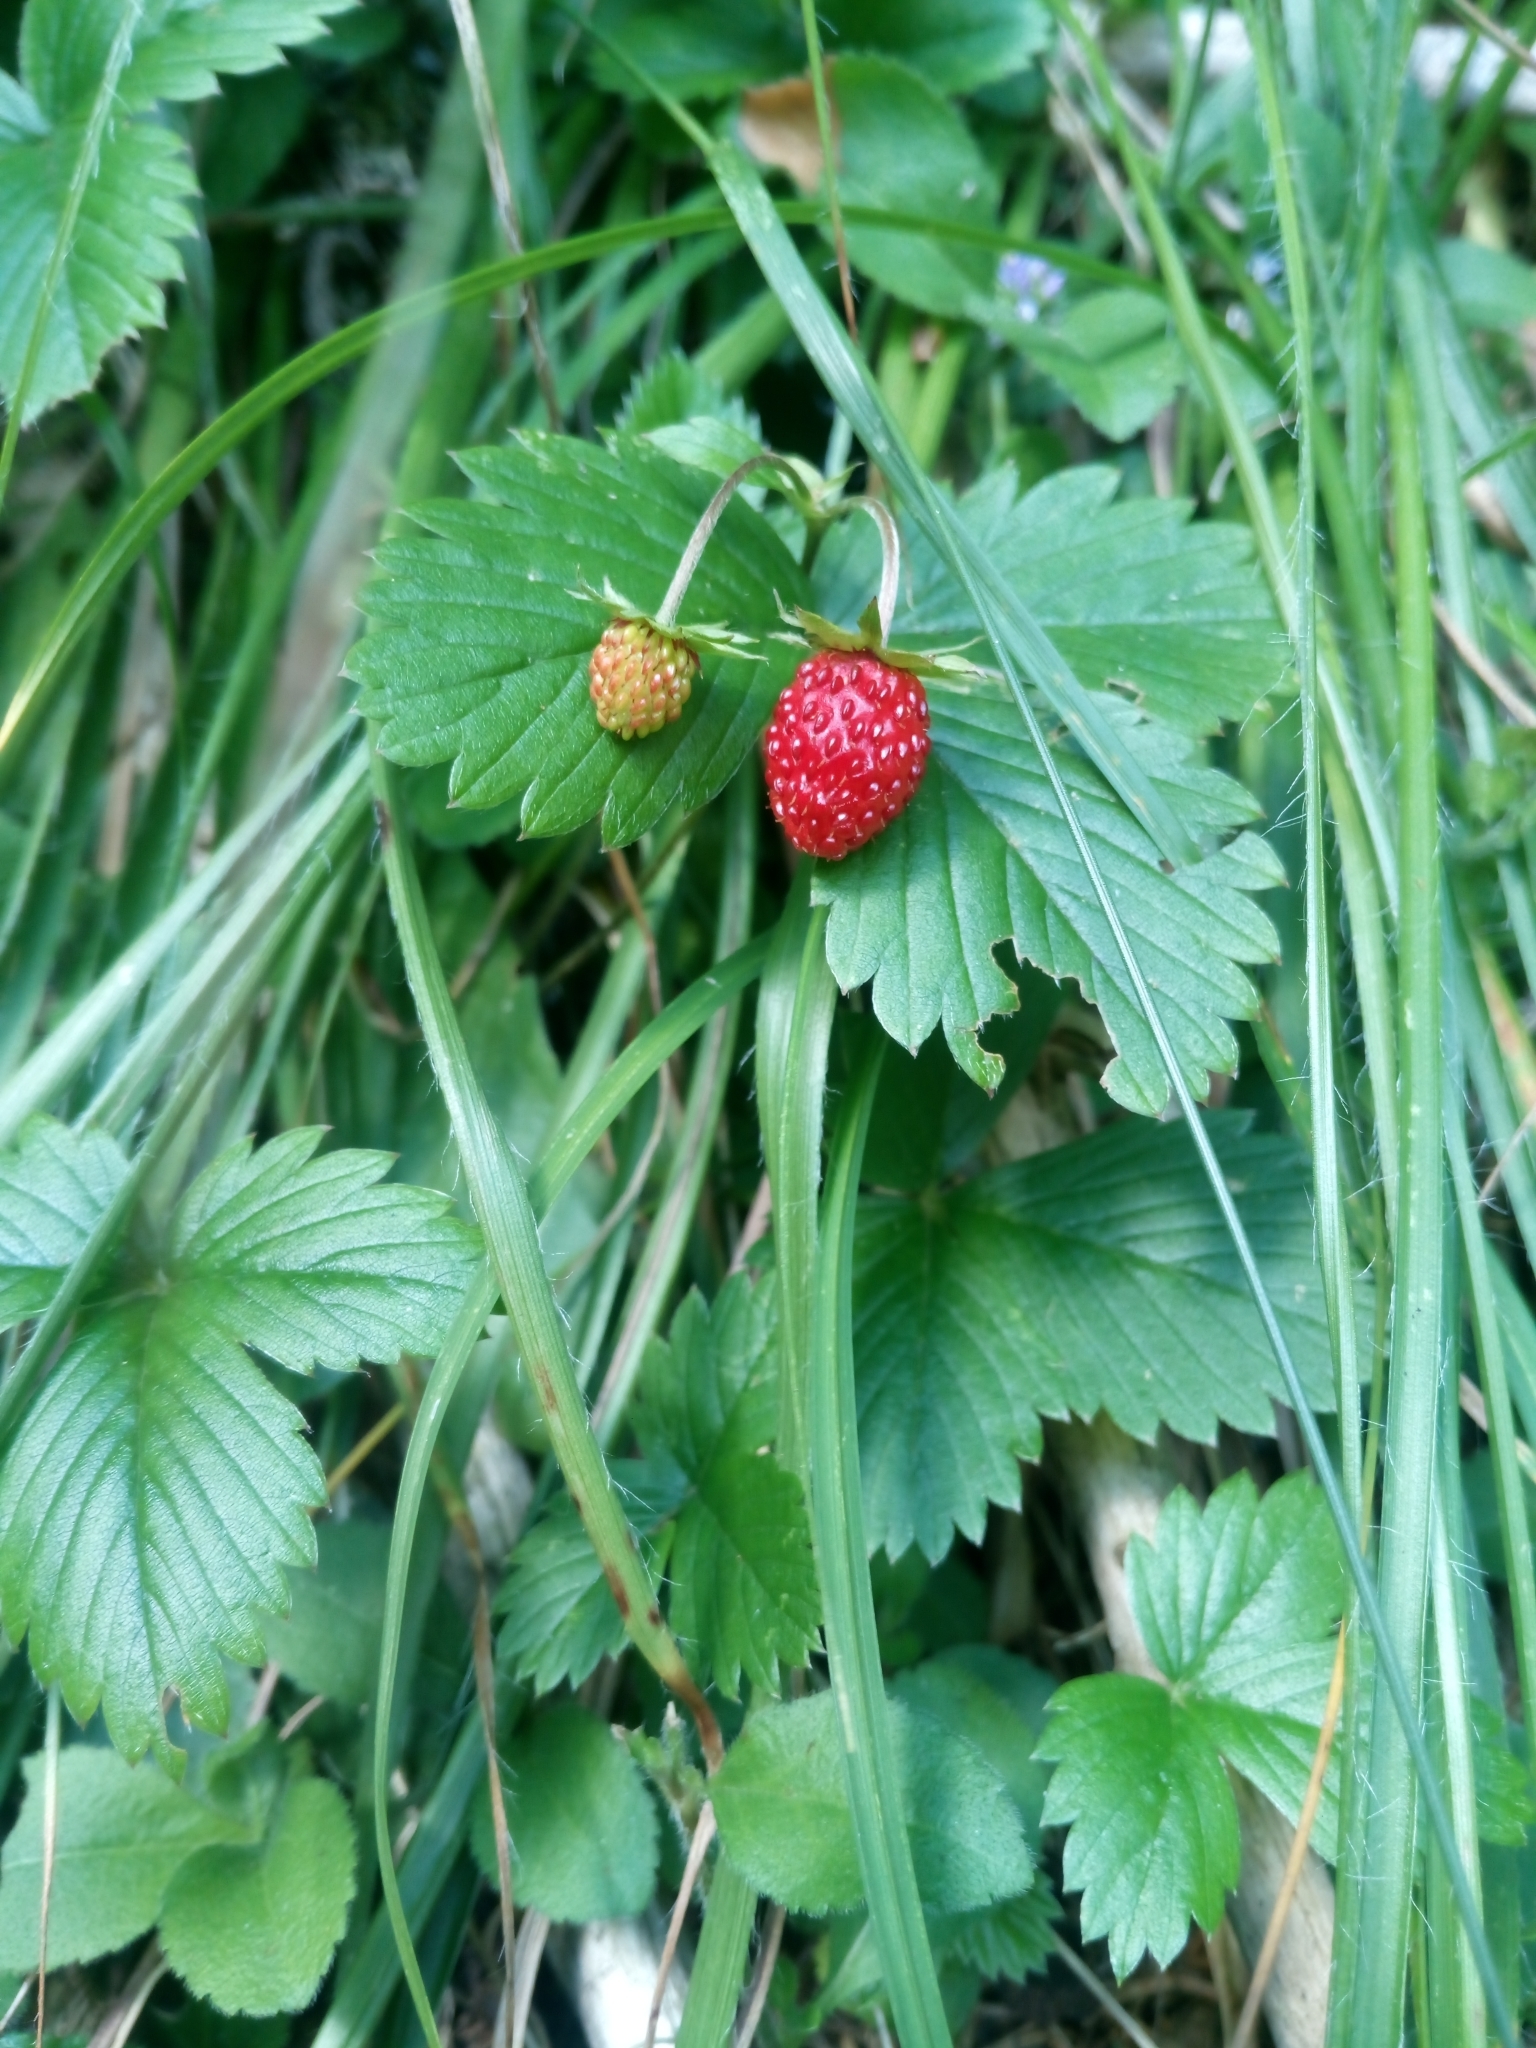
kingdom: Plantae
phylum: Tracheophyta
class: Magnoliopsida
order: Rosales
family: Rosaceae
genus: Fragaria
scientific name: Fragaria vesca
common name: Wild strawberry
